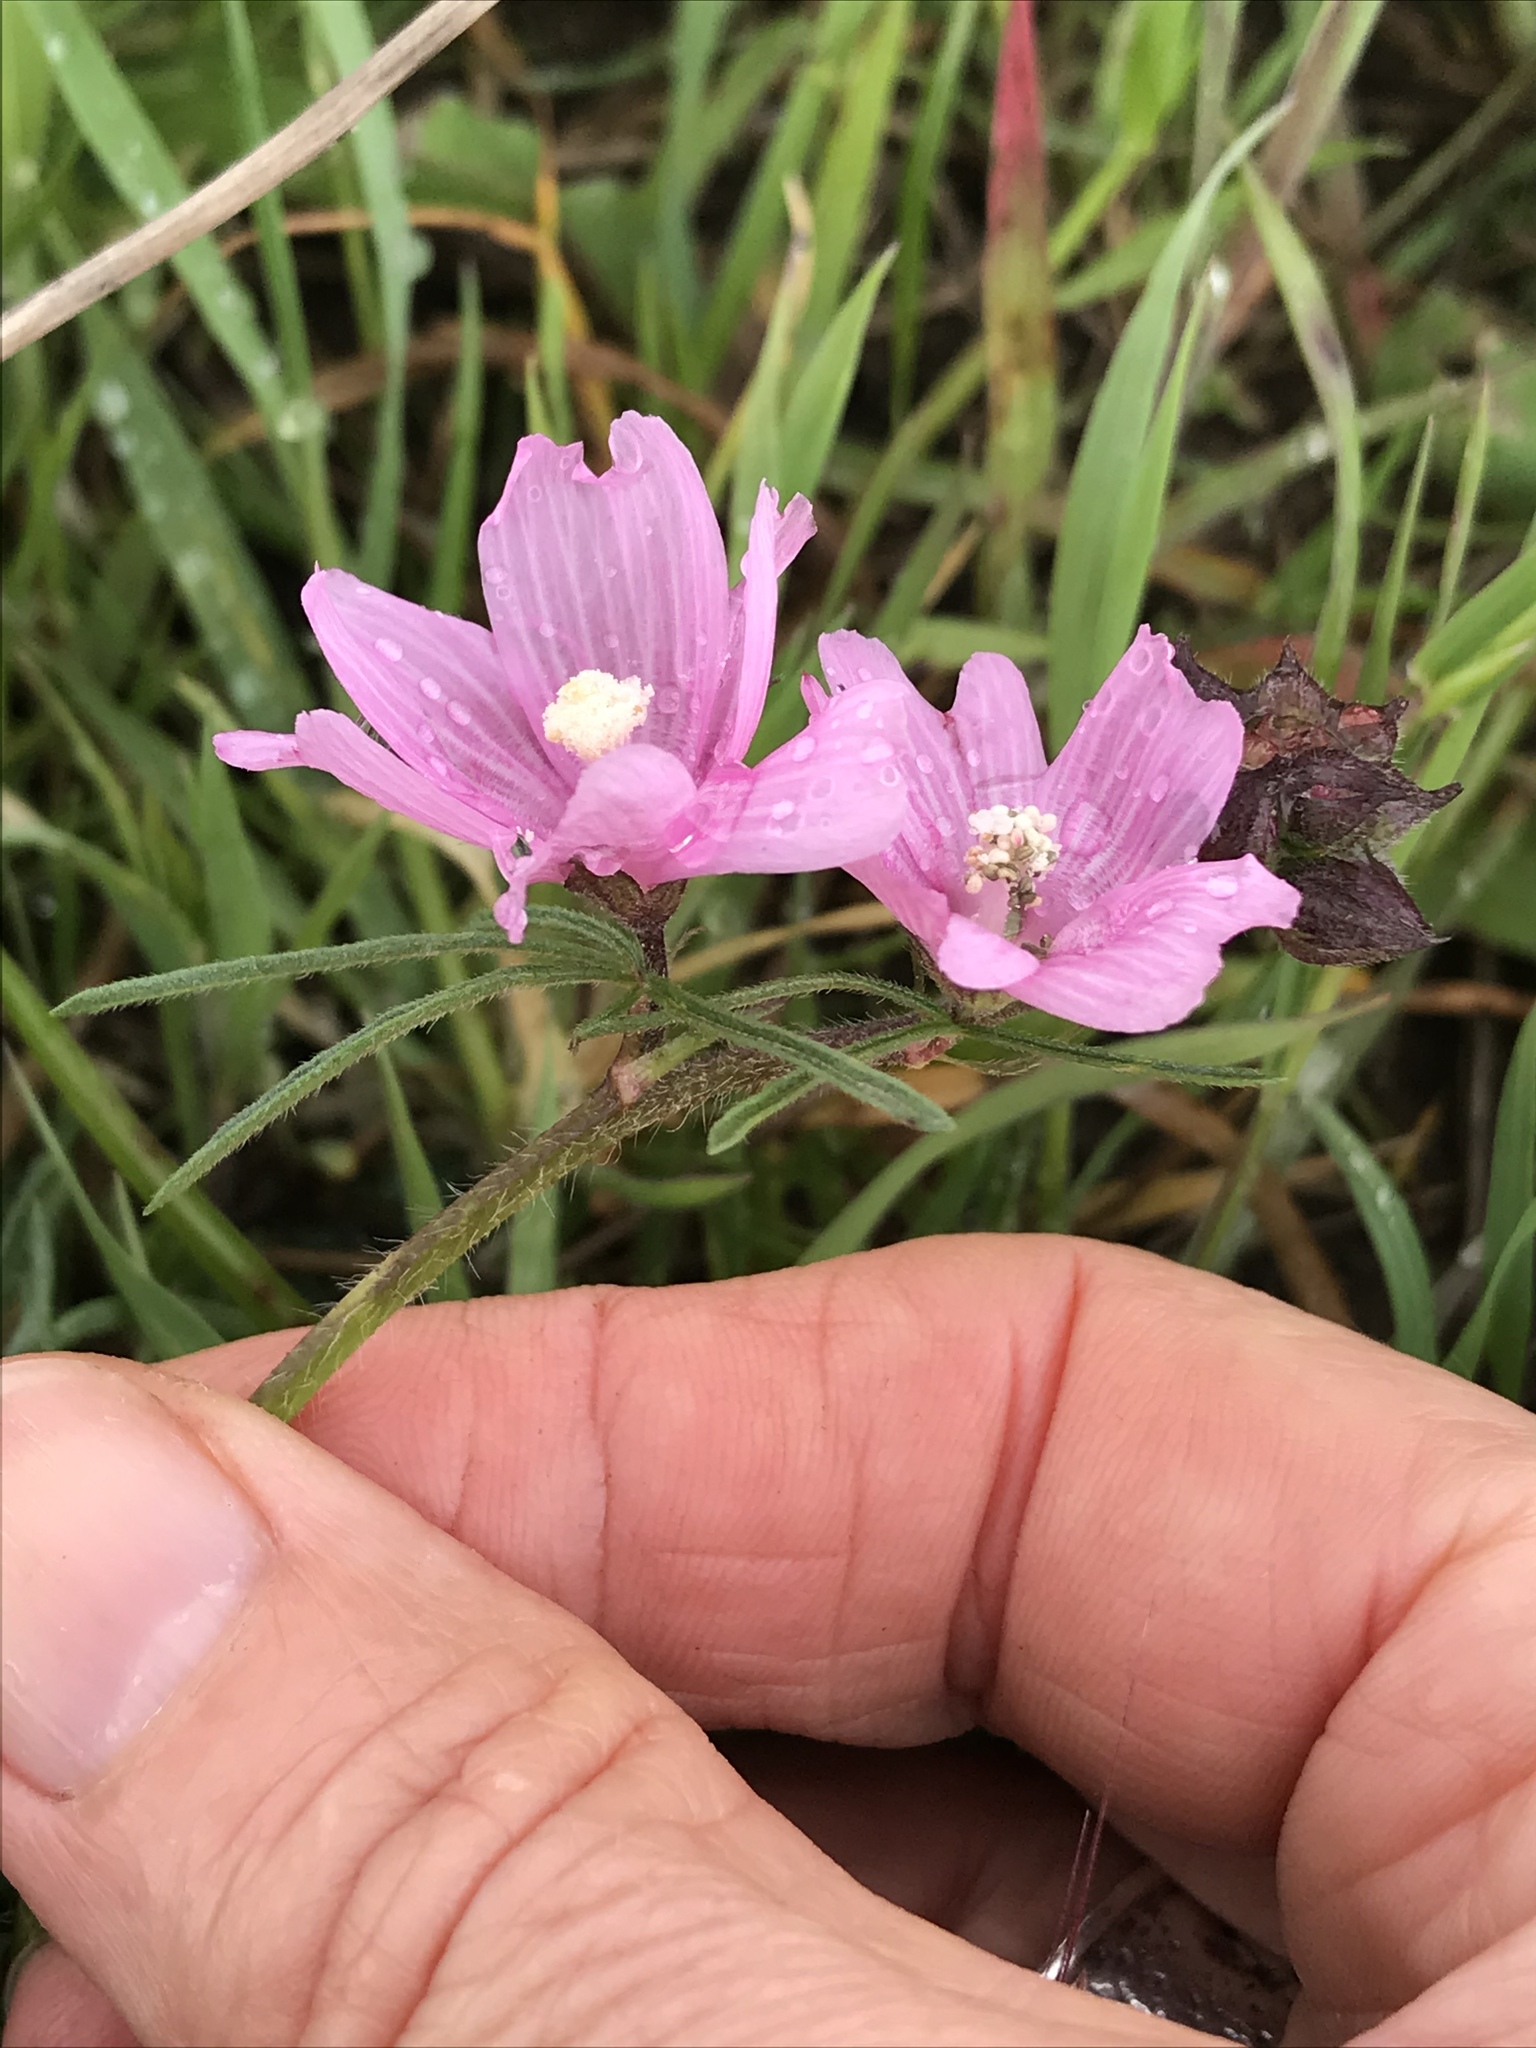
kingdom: Plantae
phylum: Tracheophyta
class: Magnoliopsida
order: Malvales
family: Malvaceae
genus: Sidalcea
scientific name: Sidalcea malviflora
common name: Greek mallow
